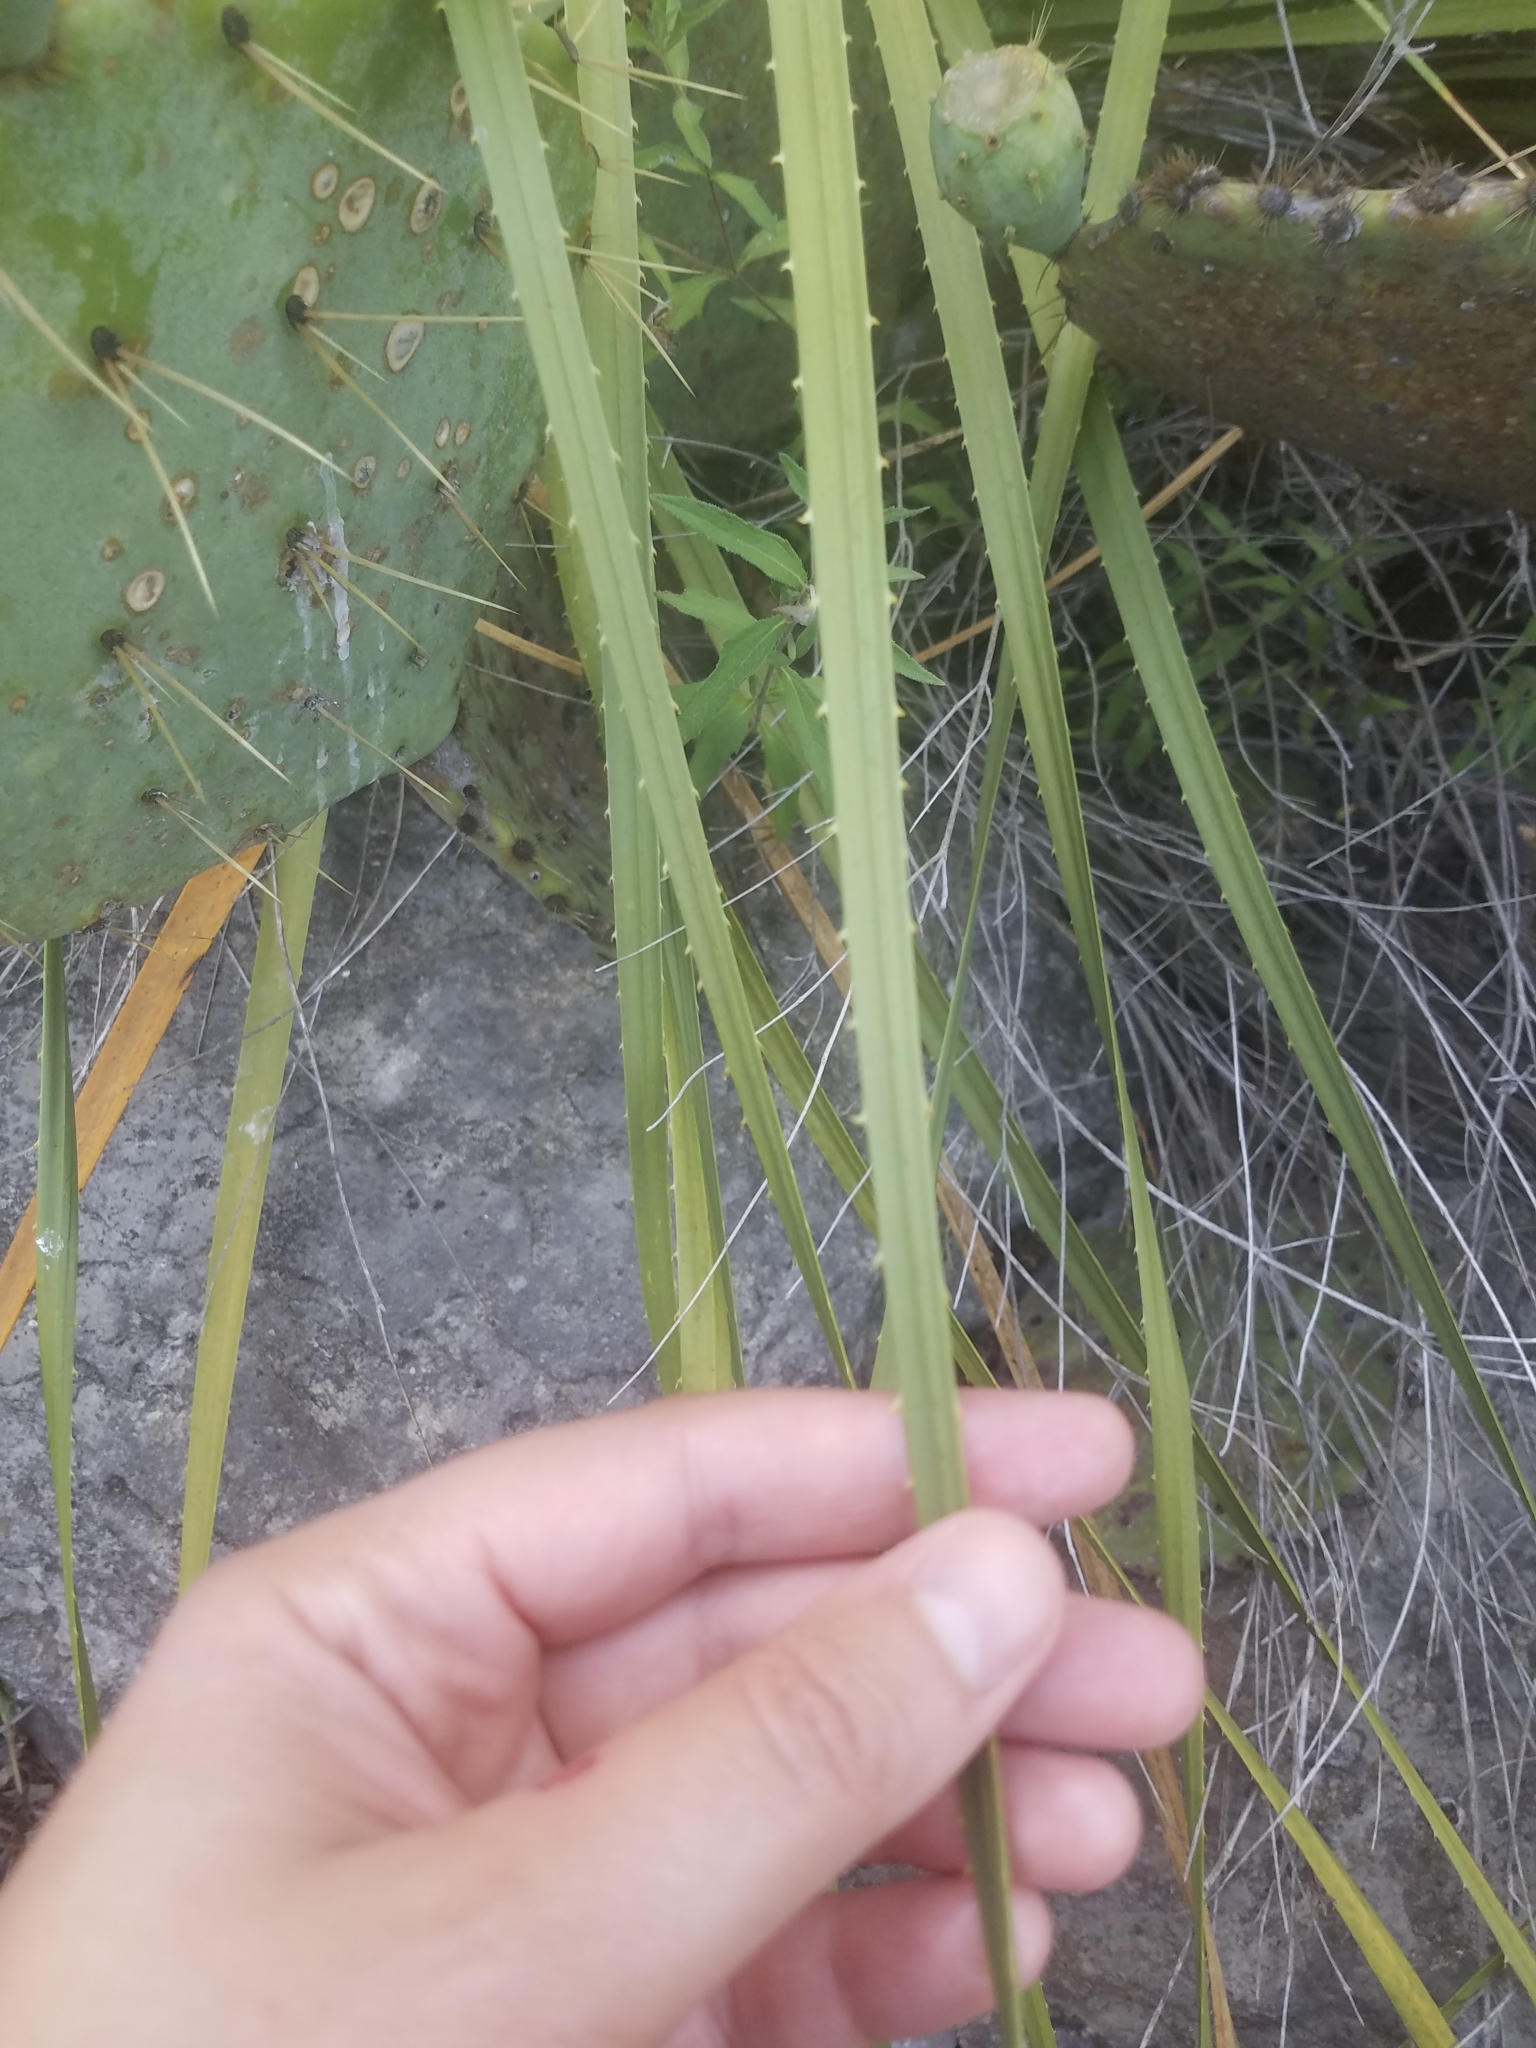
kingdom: Plantae
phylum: Tracheophyta
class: Liliopsida
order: Asparagales
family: Asparagaceae
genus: Dasylirion
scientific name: Dasylirion texanum
